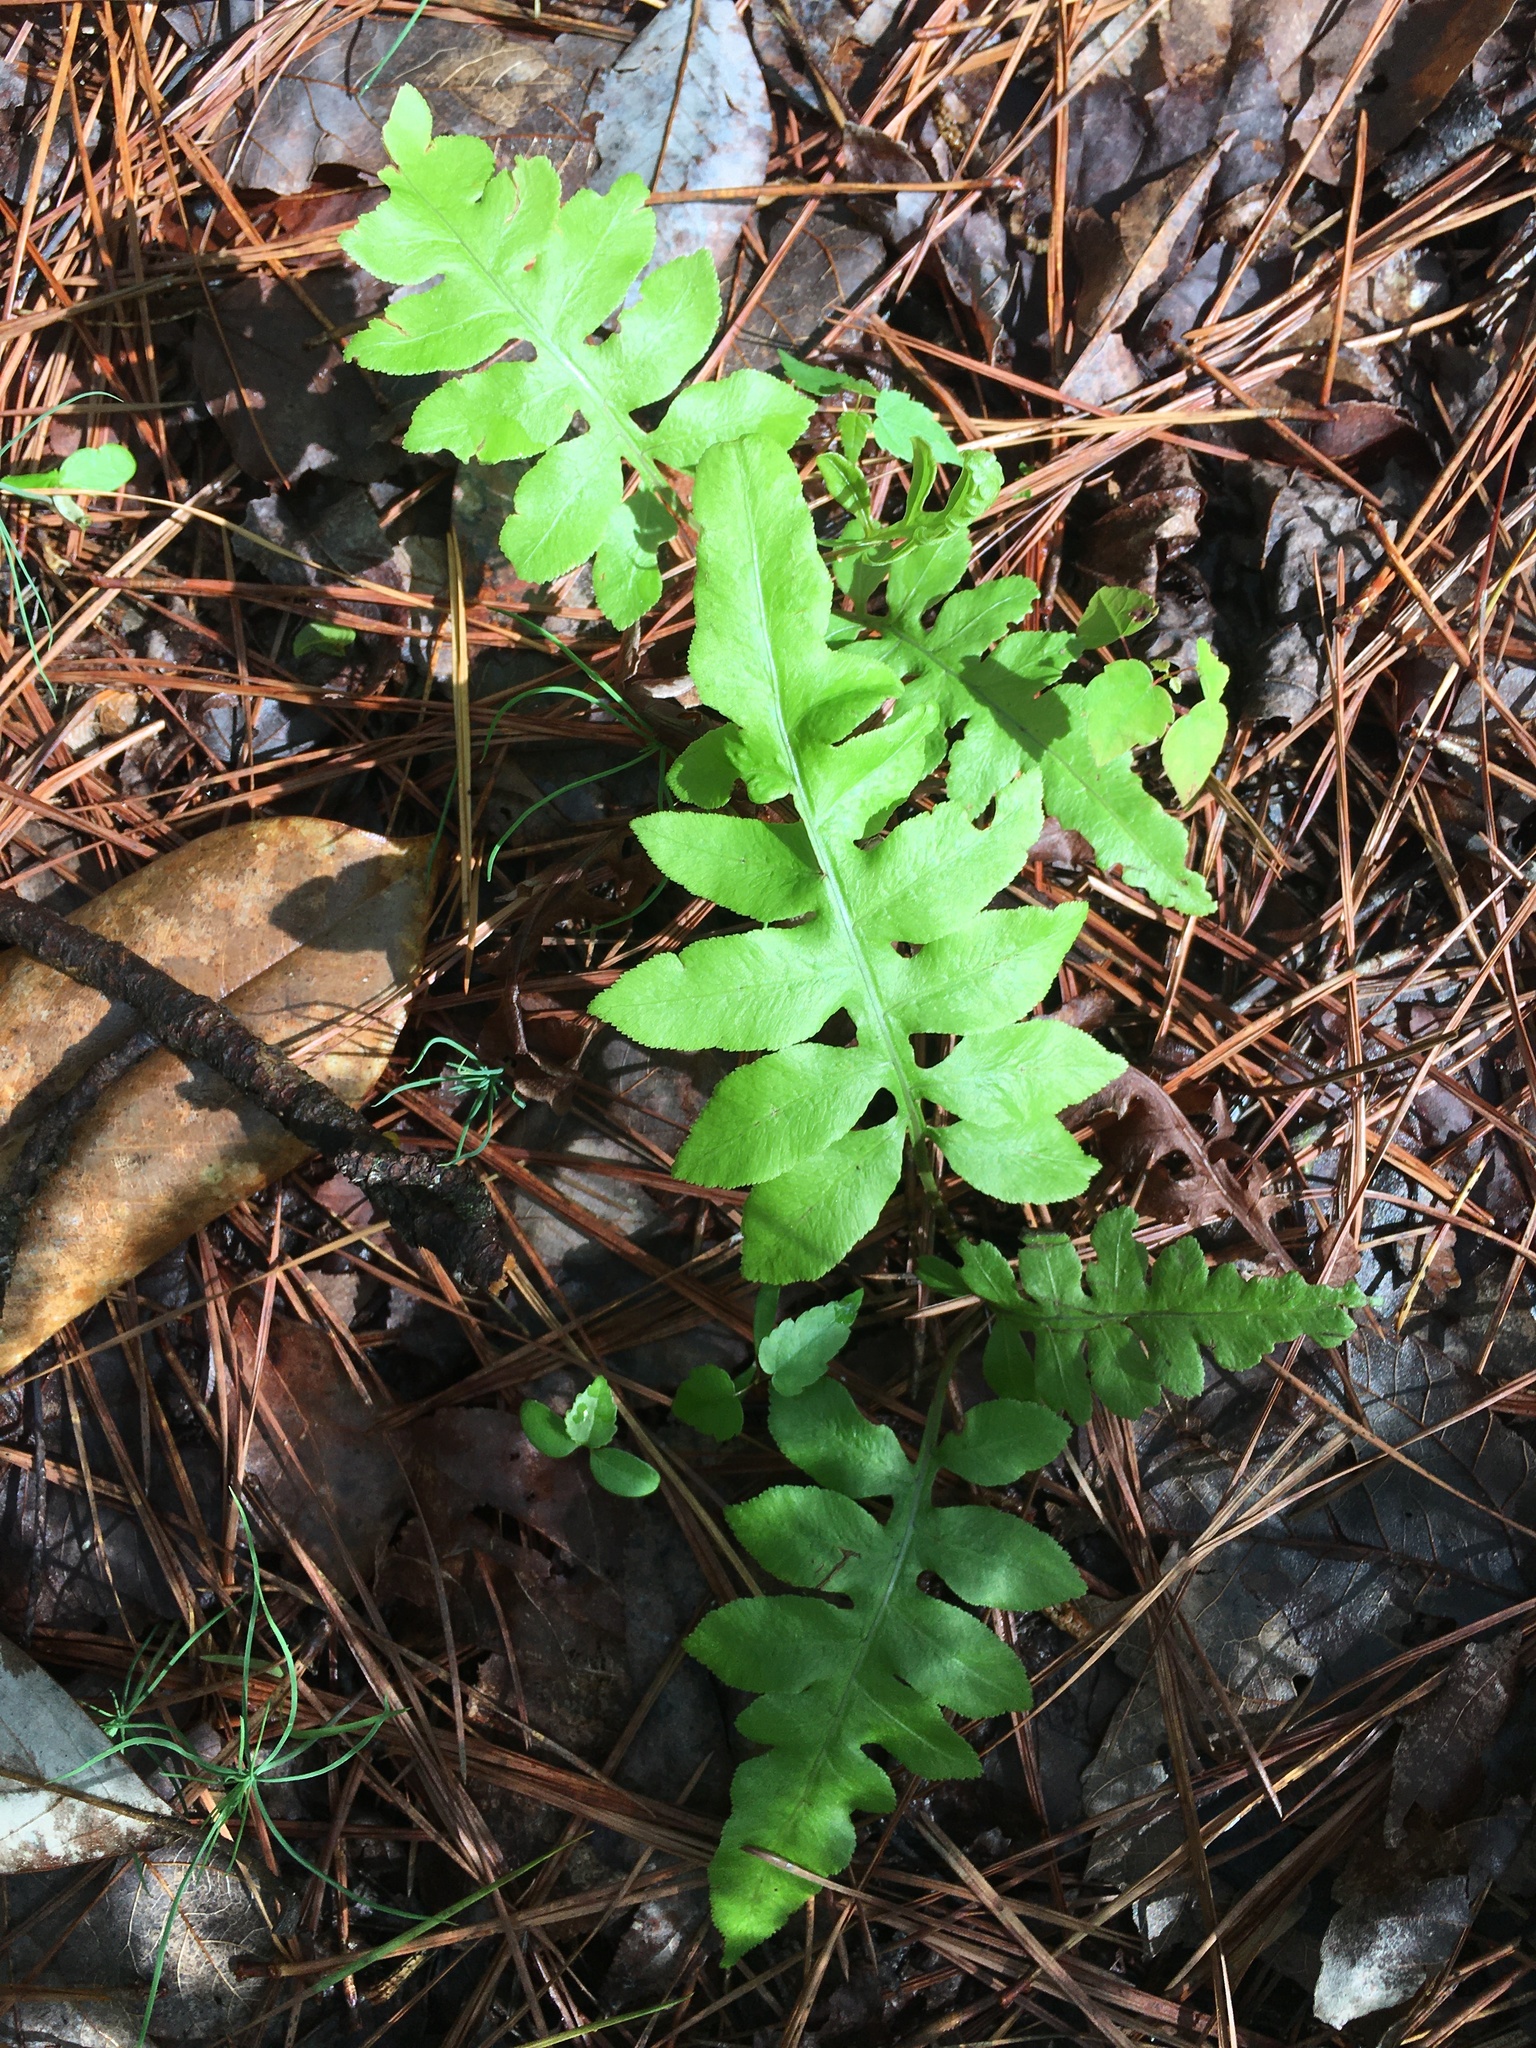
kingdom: Plantae
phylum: Tracheophyta
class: Polypodiopsida
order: Polypodiales
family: Blechnaceae
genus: Lorinseria
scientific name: Lorinseria areolata
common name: Dwarf chain fern
